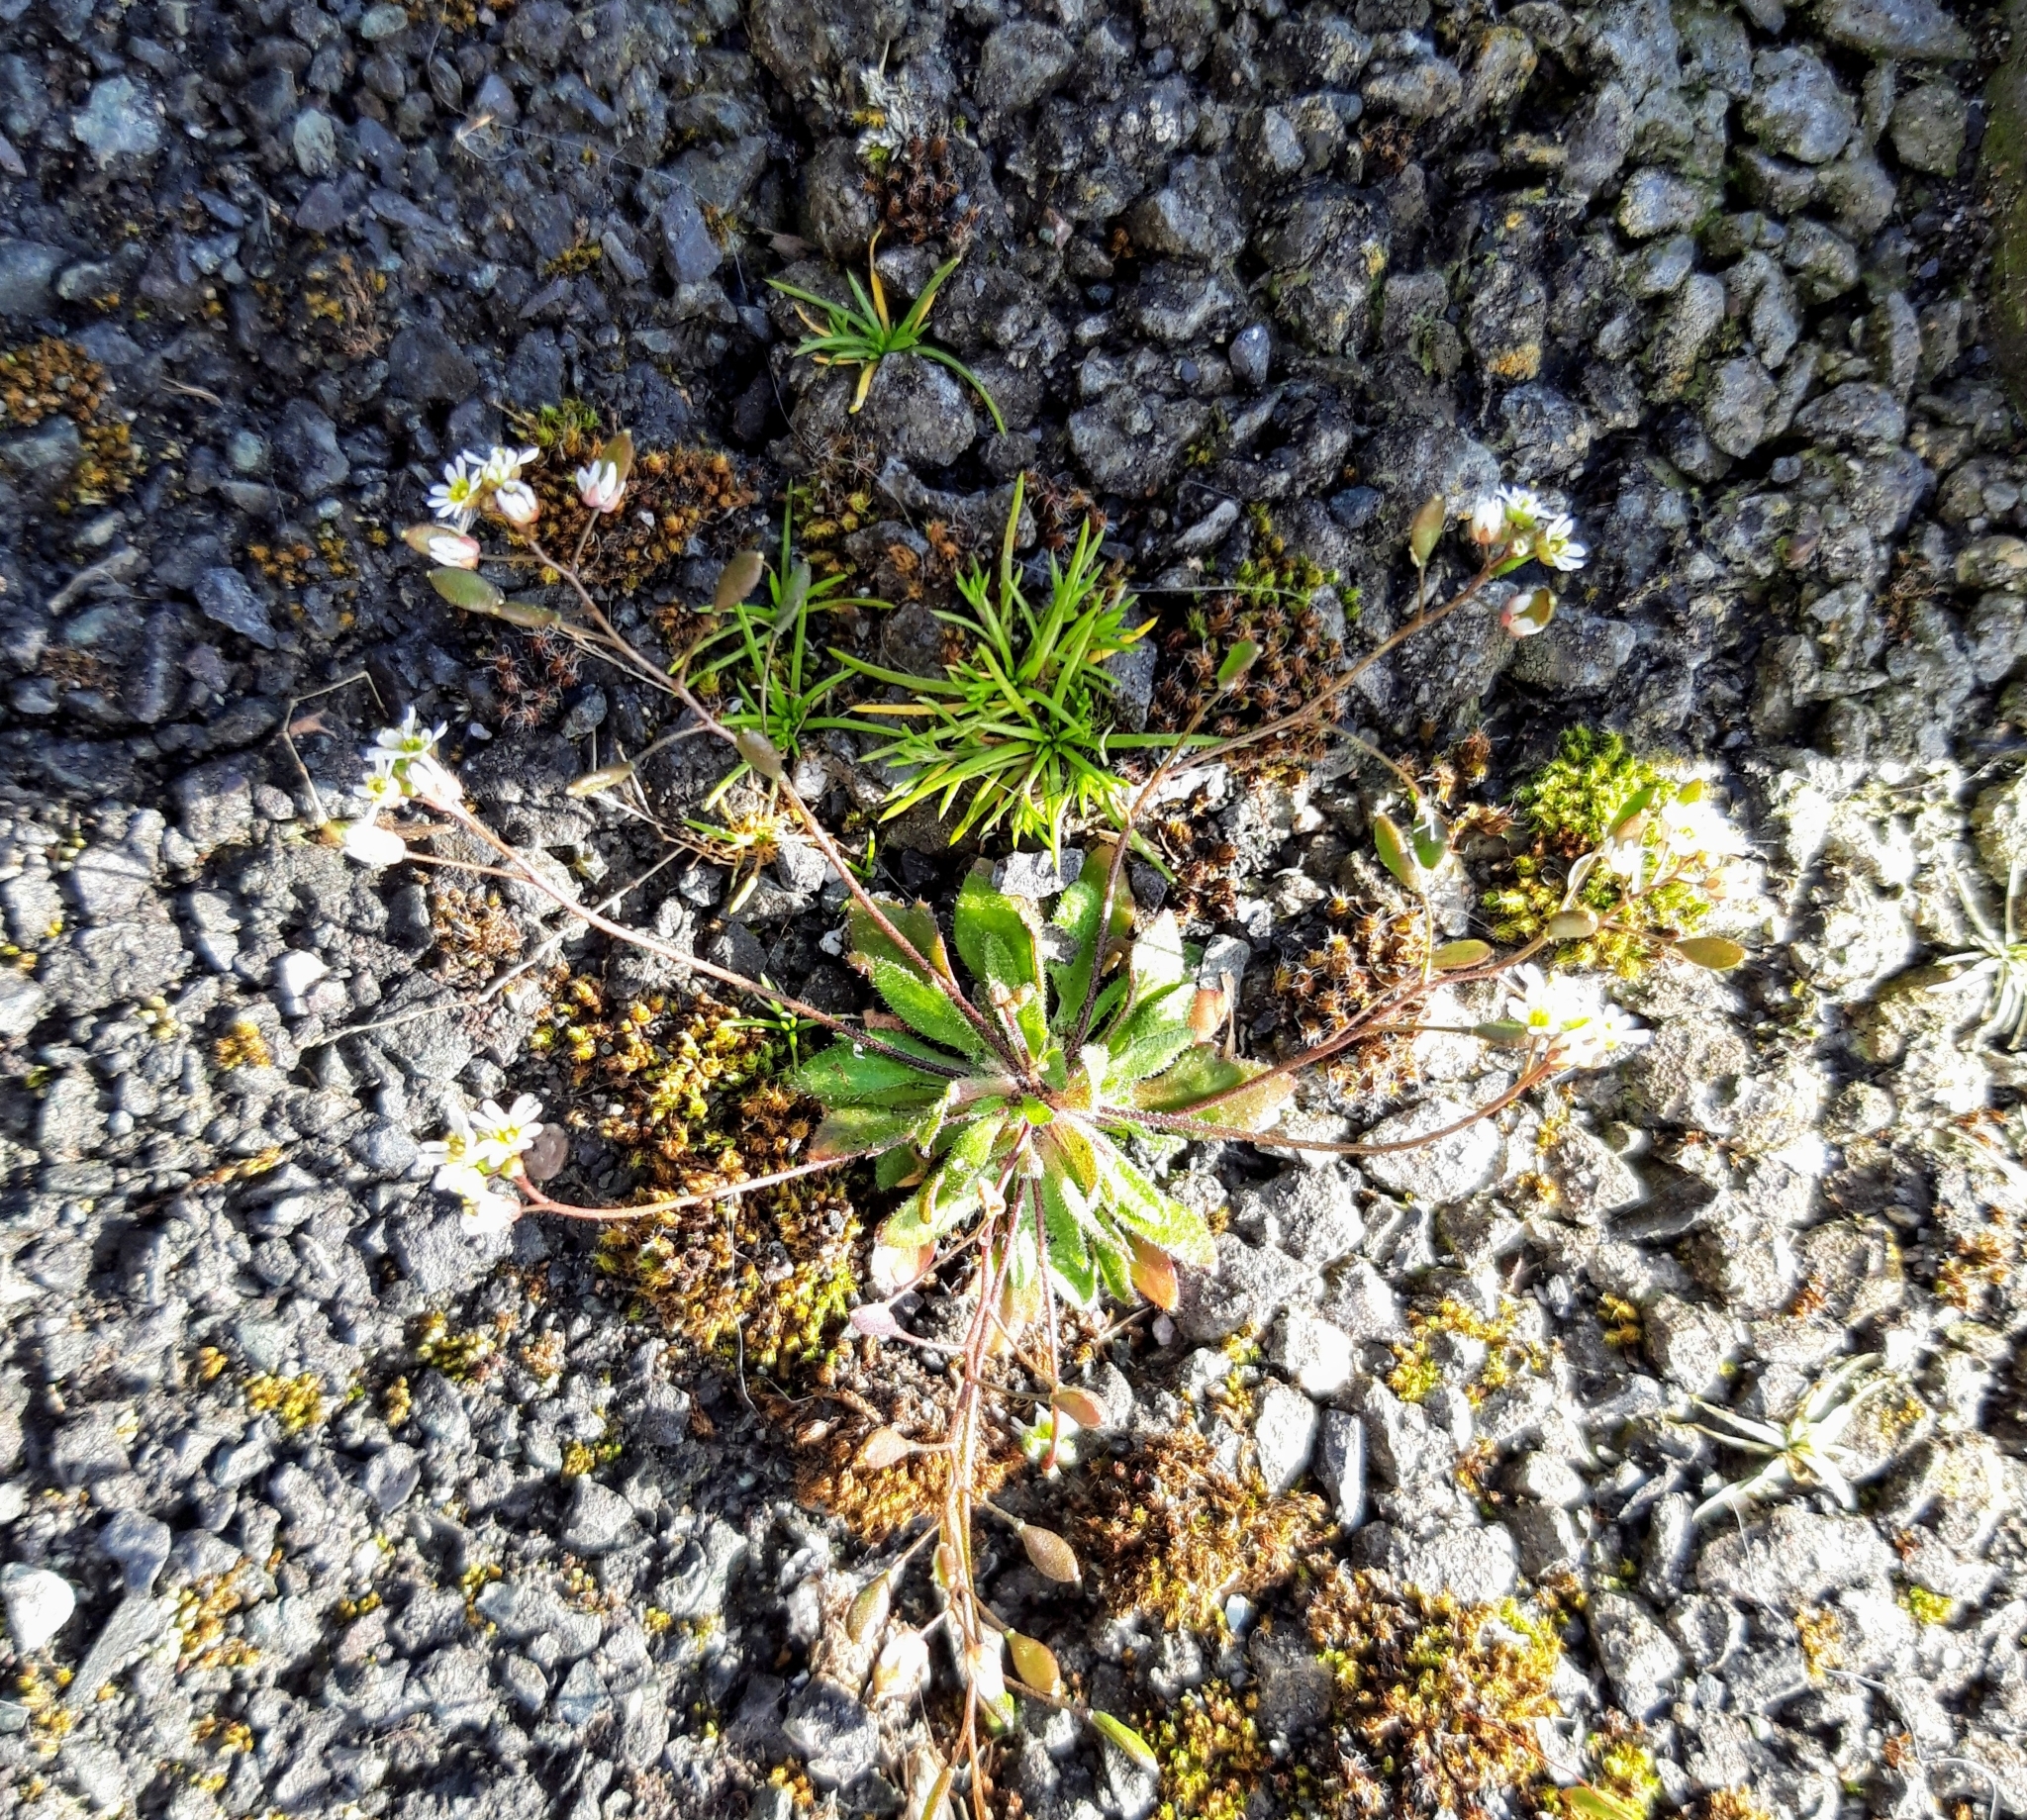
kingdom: Plantae
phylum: Tracheophyta
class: Magnoliopsida
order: Brassicales
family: Brassicaceae
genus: Draba
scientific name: Draba verna
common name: Spring draba
